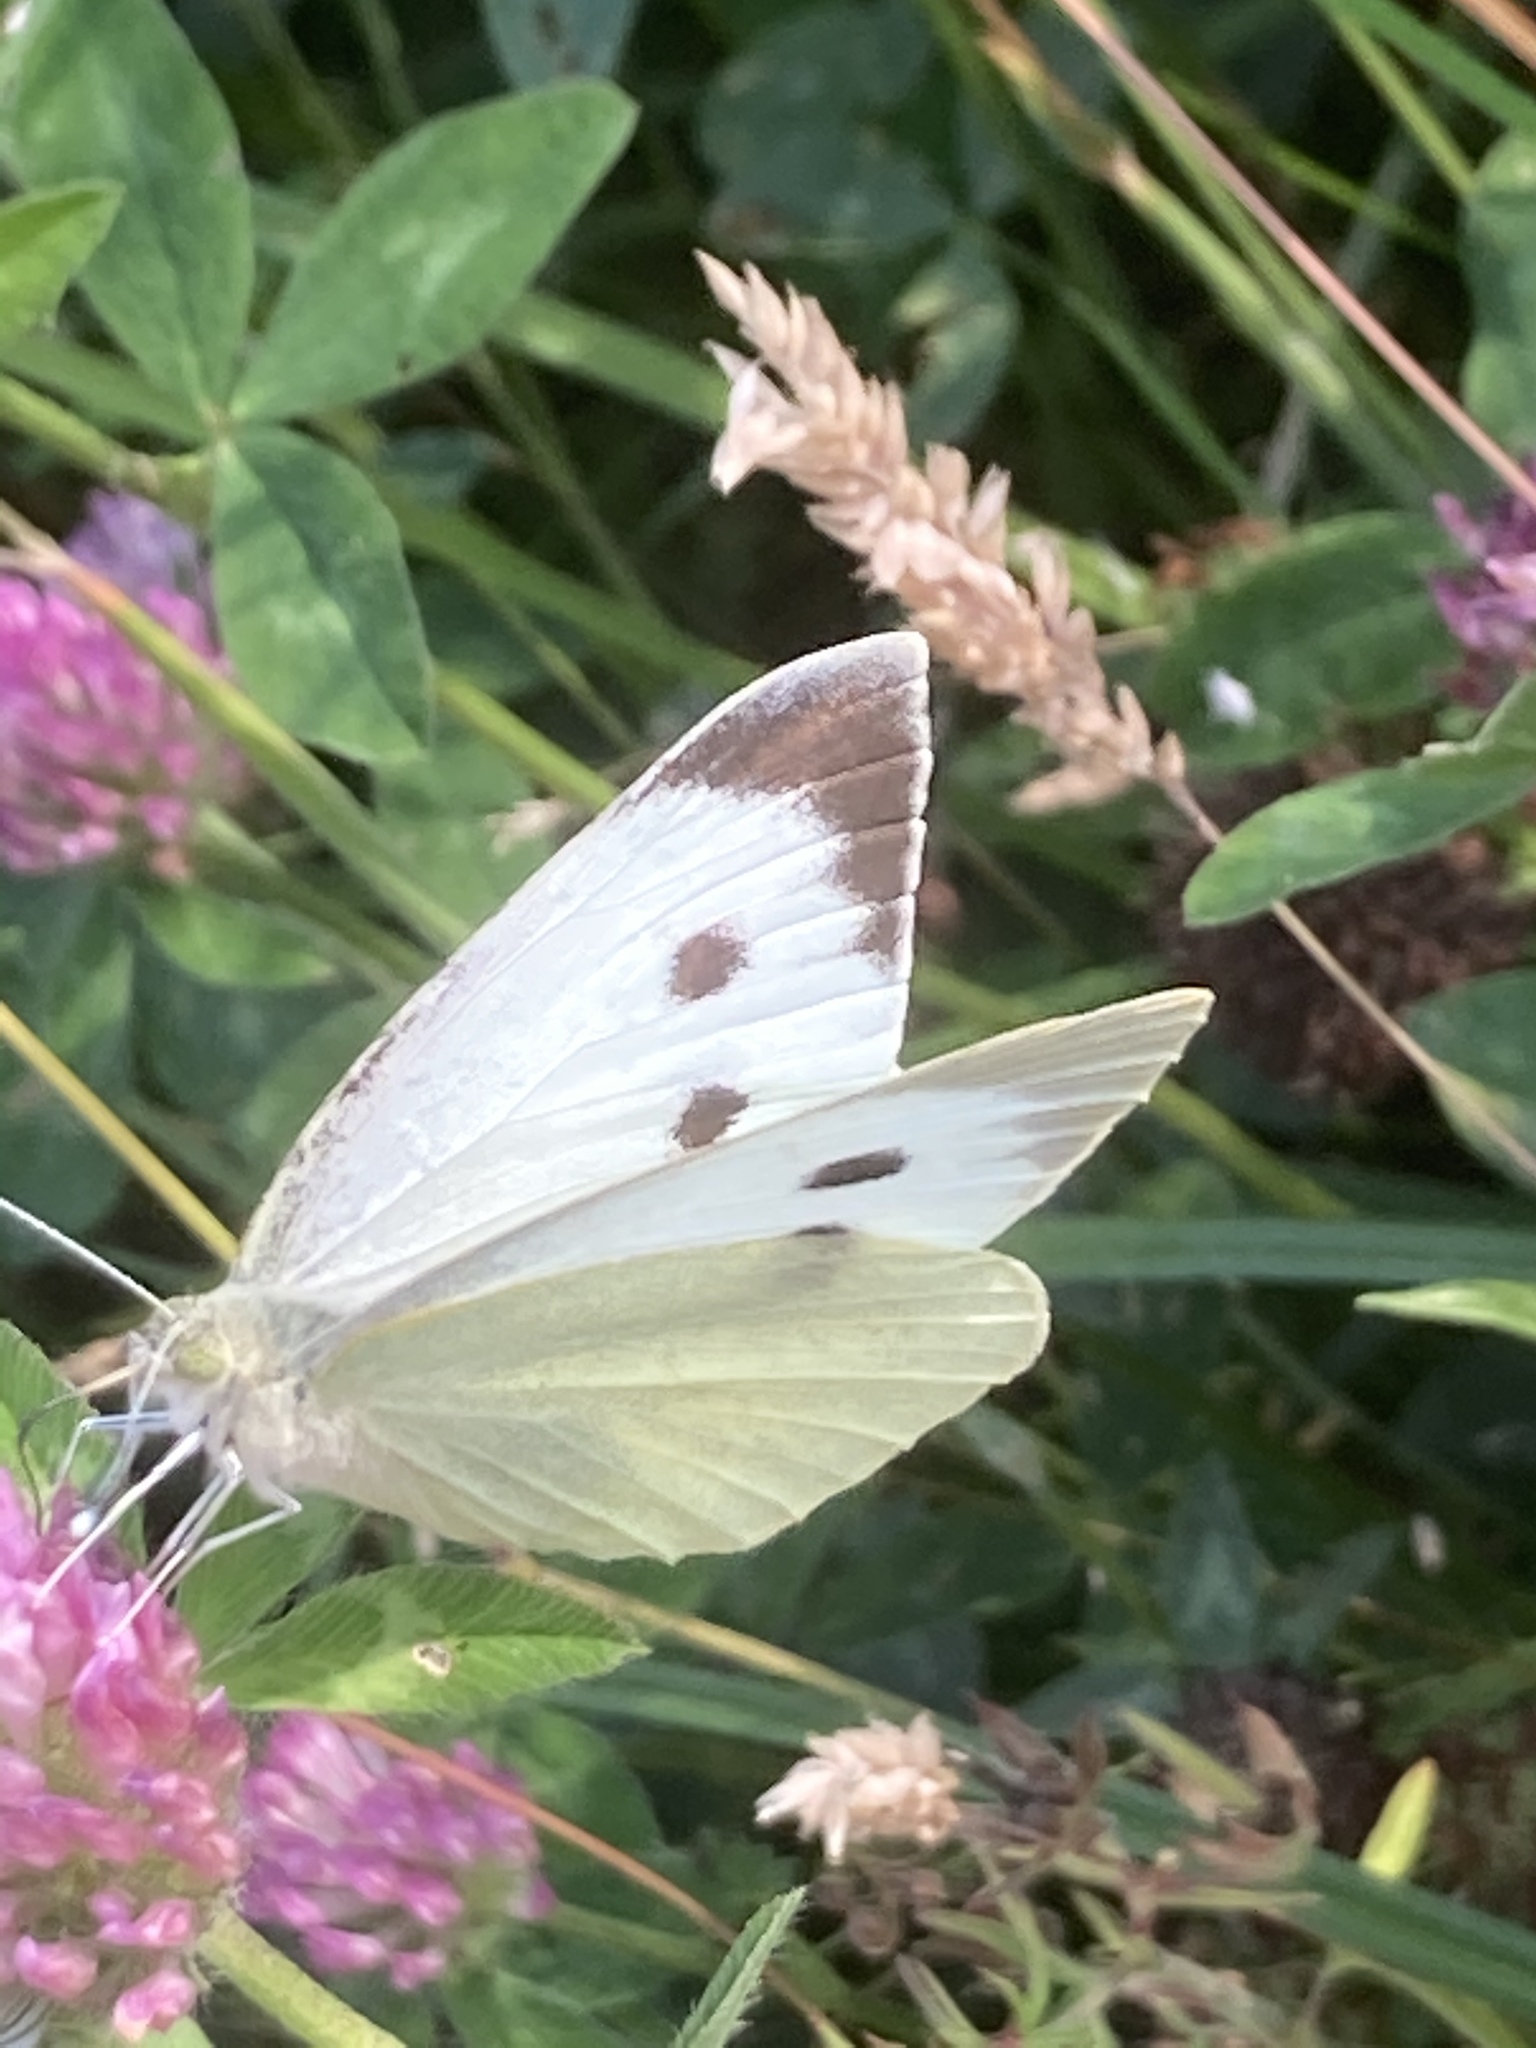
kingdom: Animalia
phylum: Arthropoda
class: Insecta
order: Lepidoptera
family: Pieridae
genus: Pieris
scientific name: Pieris brassicae
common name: Large white
